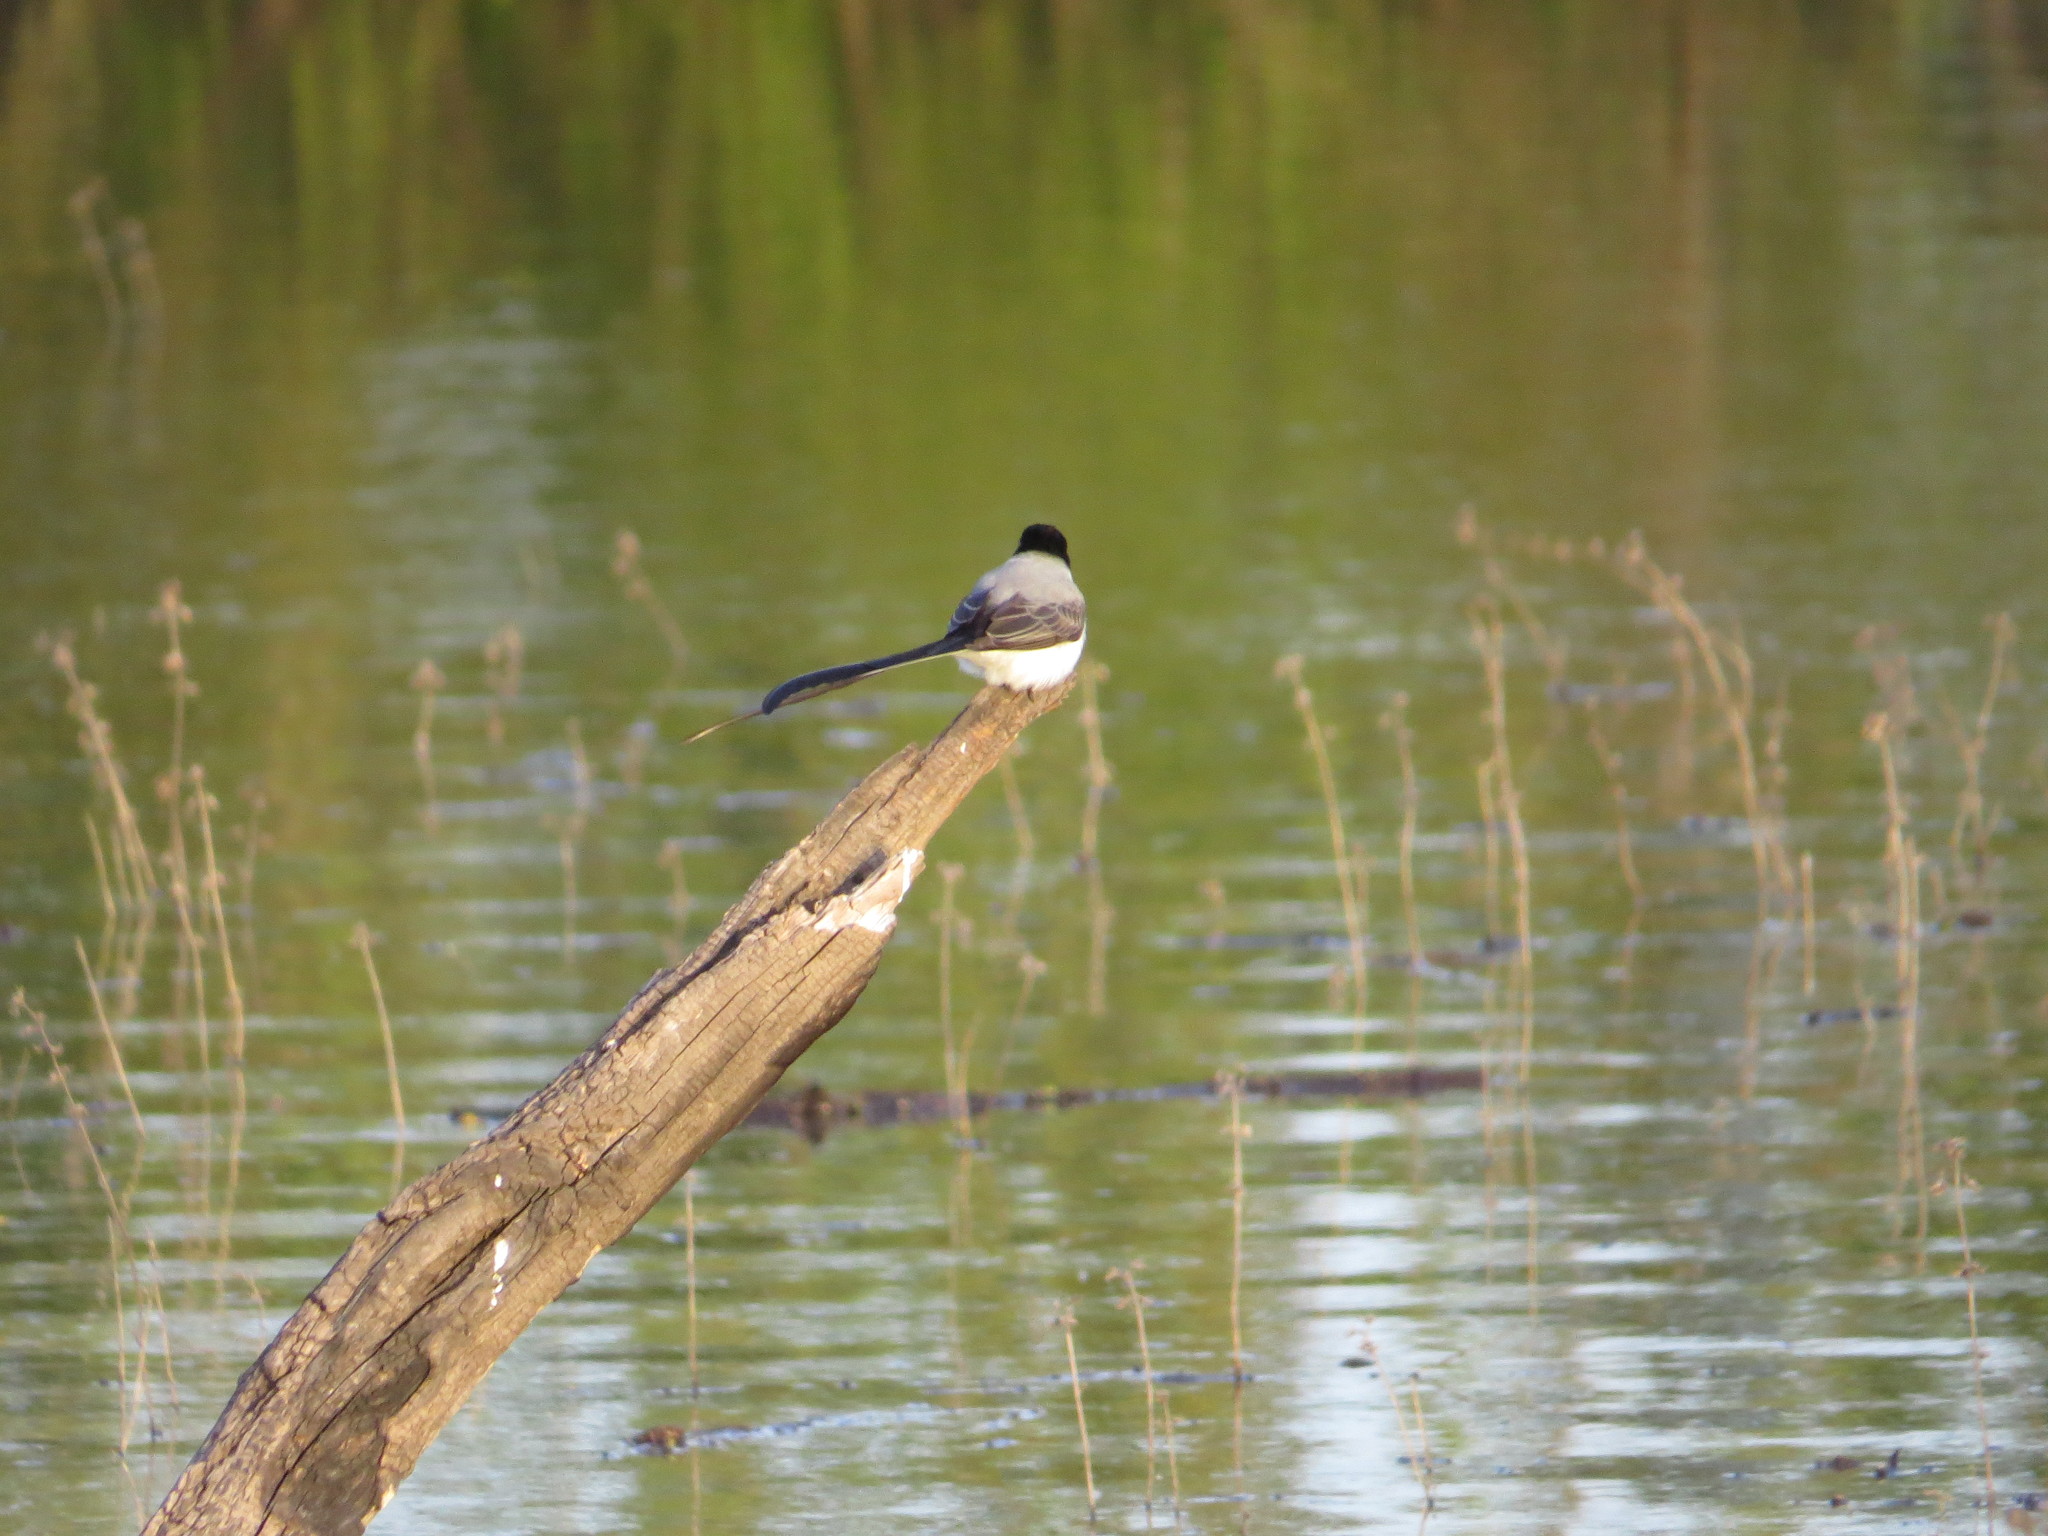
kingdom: Animalia
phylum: Chordata
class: Aves
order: Passeriformes
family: Tyrannidae
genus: Tyrannus
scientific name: Tyrannus savana
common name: Fork-tailed flycatcher
